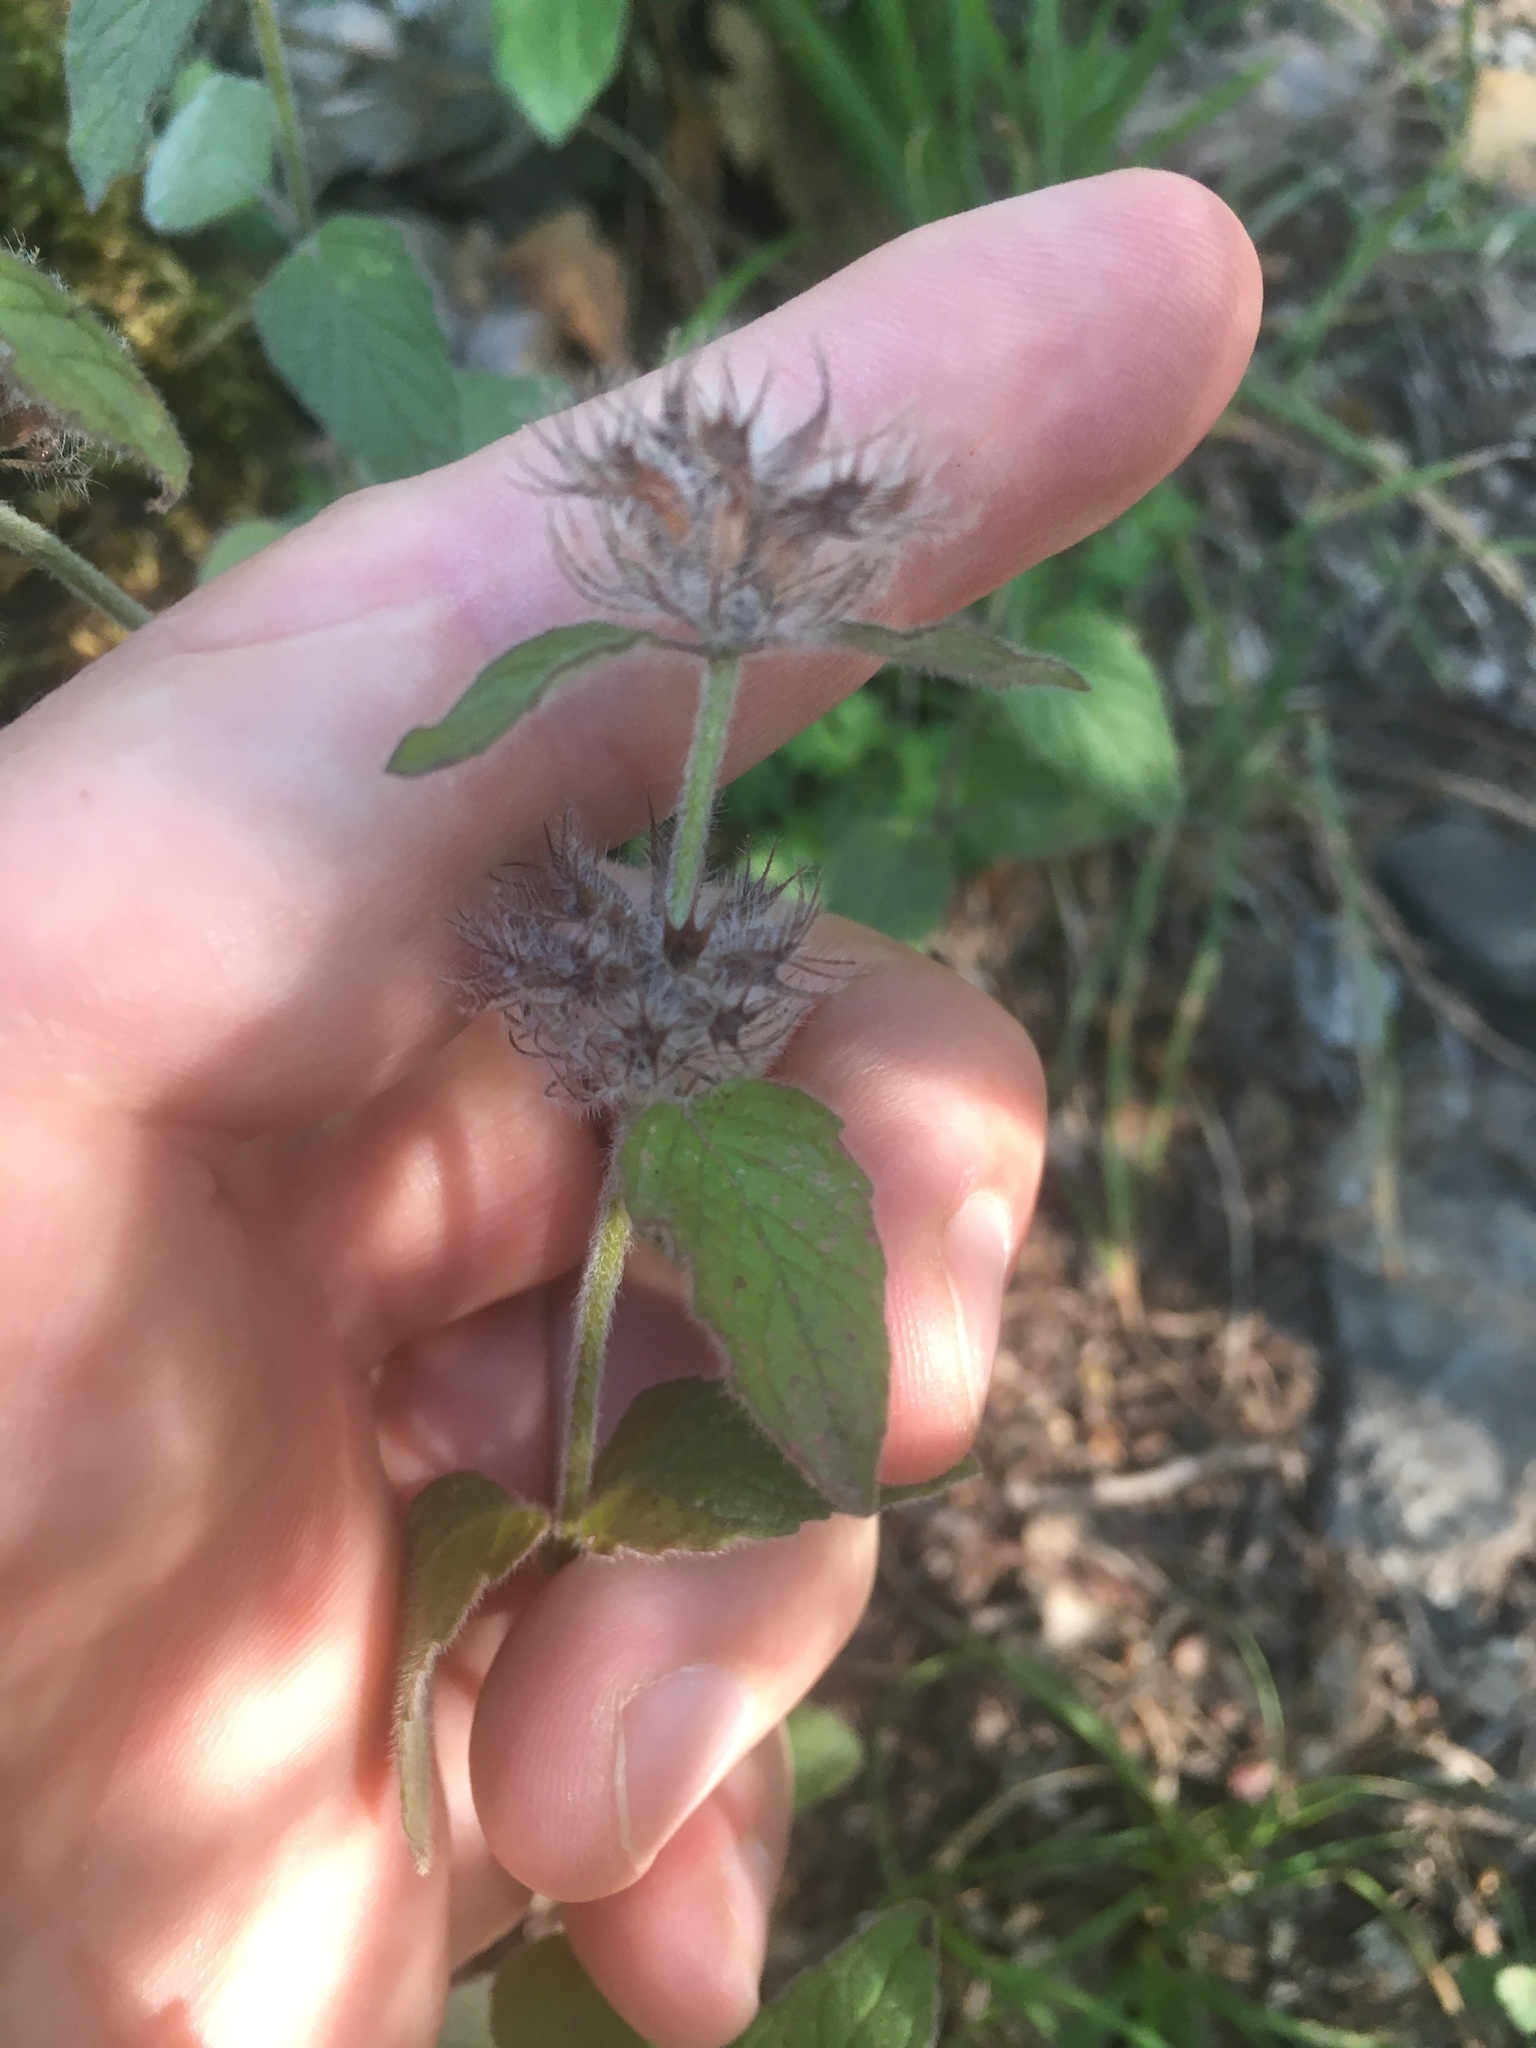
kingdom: Plantae
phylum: Tracheophyta
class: Magnoliopsida
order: Lamiales
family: Lamiaceae
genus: Clinopodium
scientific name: Clinopodium vulgare
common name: Wild basil
